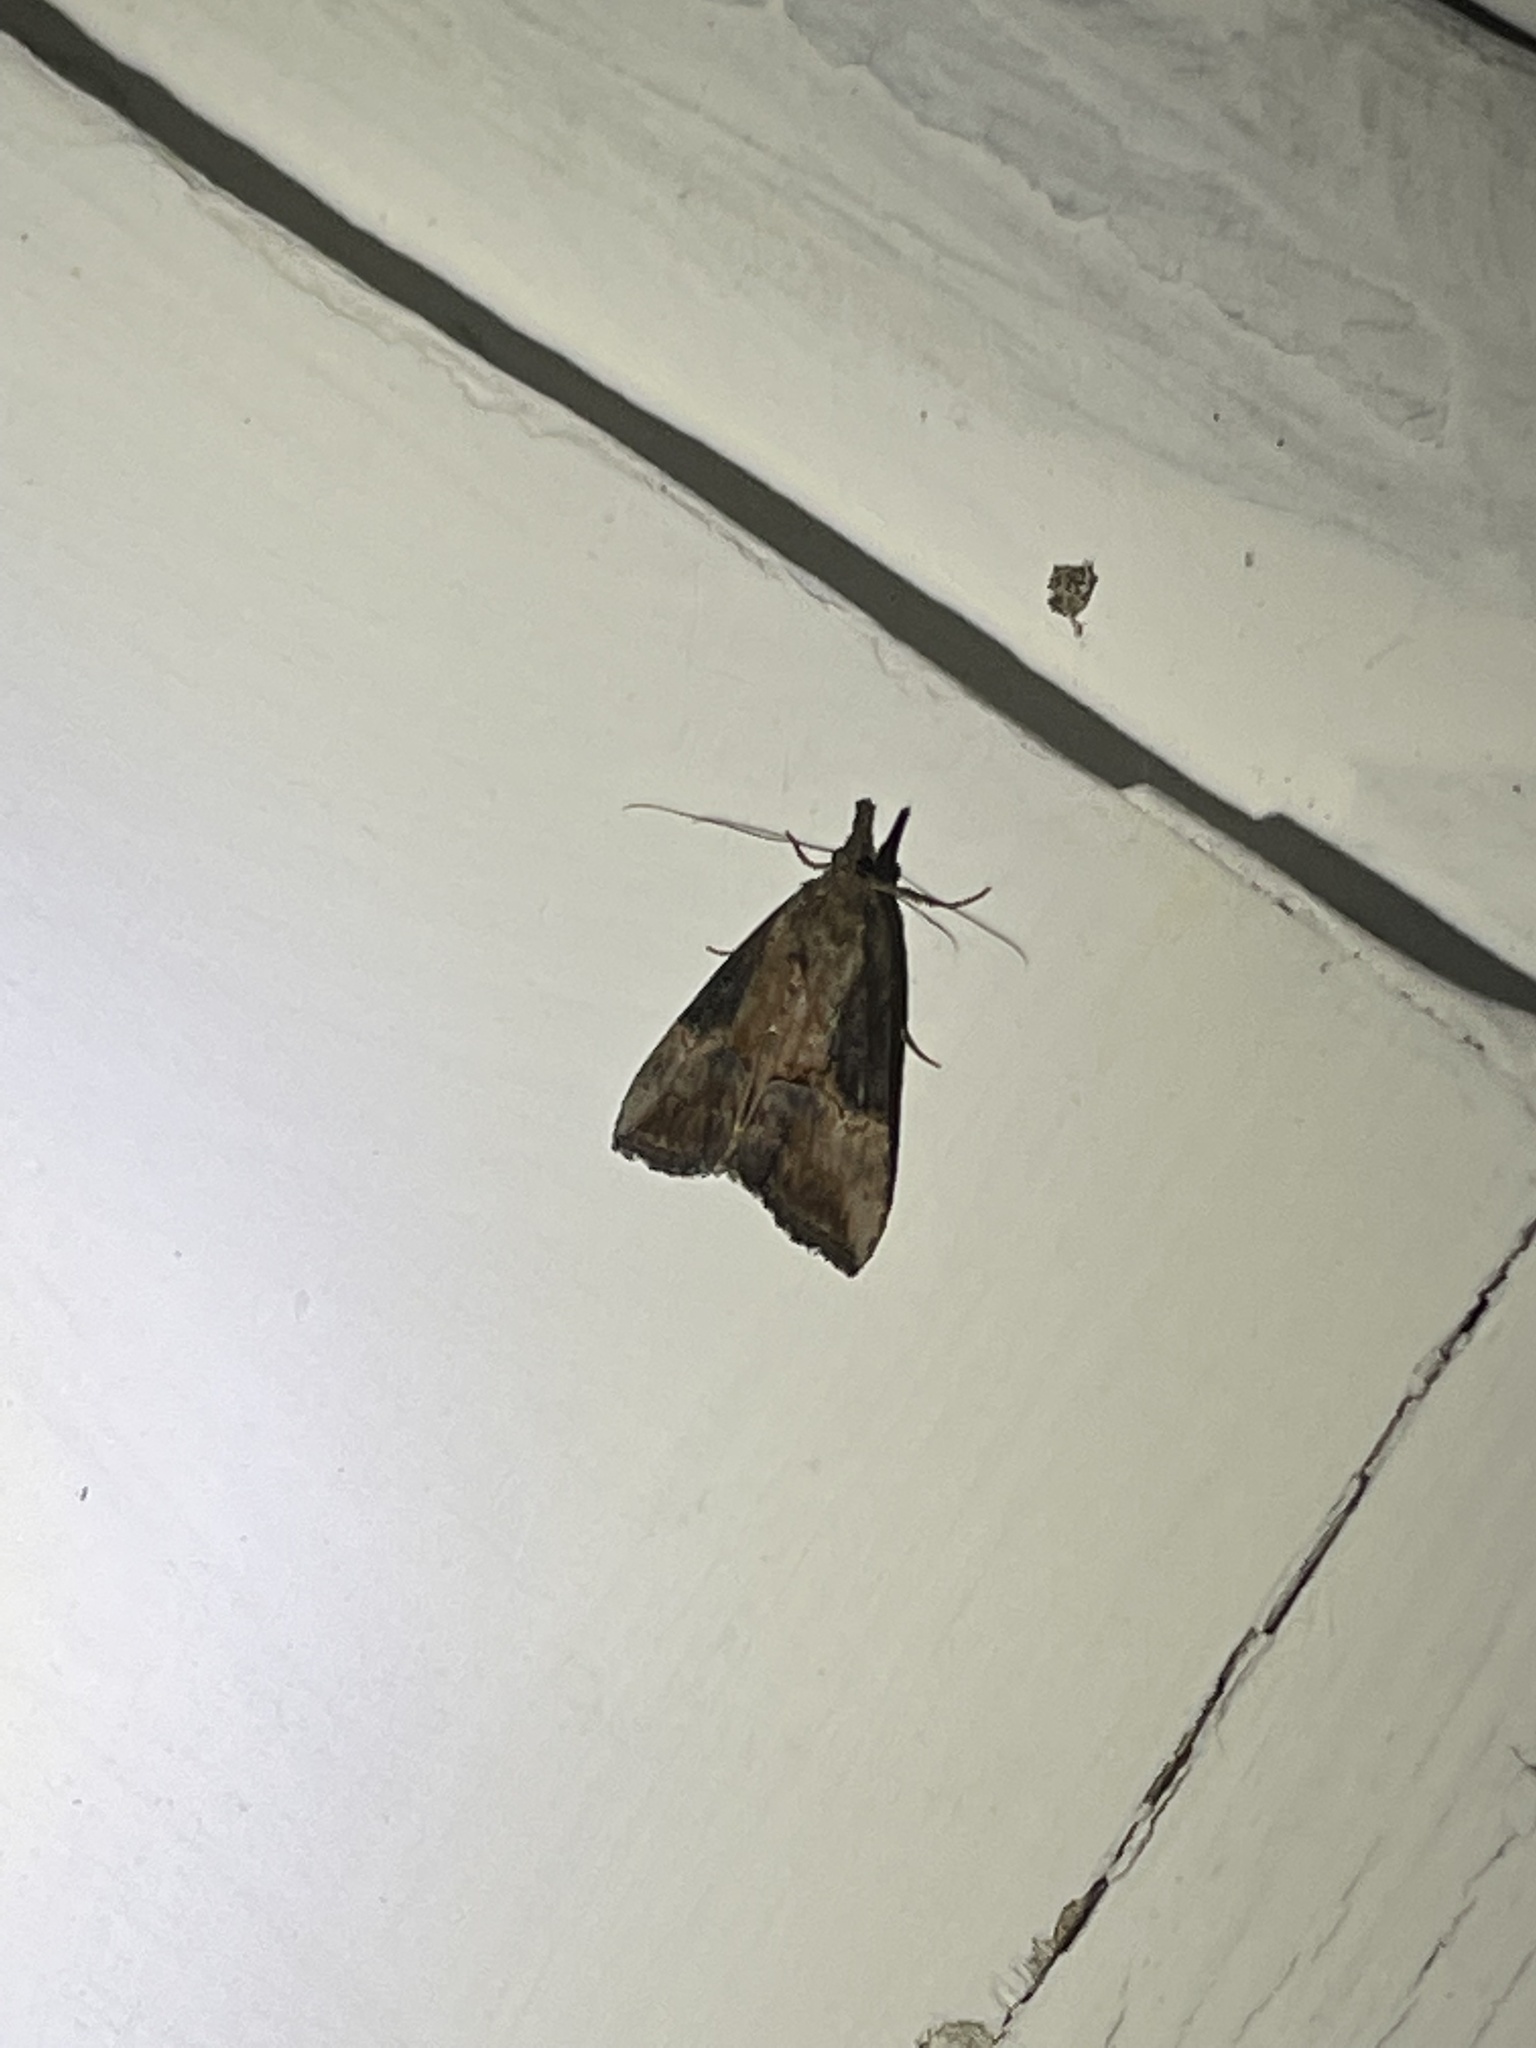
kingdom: Animalia
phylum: Arthropoda
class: Insecta
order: Lepidoptera
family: Erebidae
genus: Hypena
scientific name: Hypena scabra
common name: Green cloverworm
